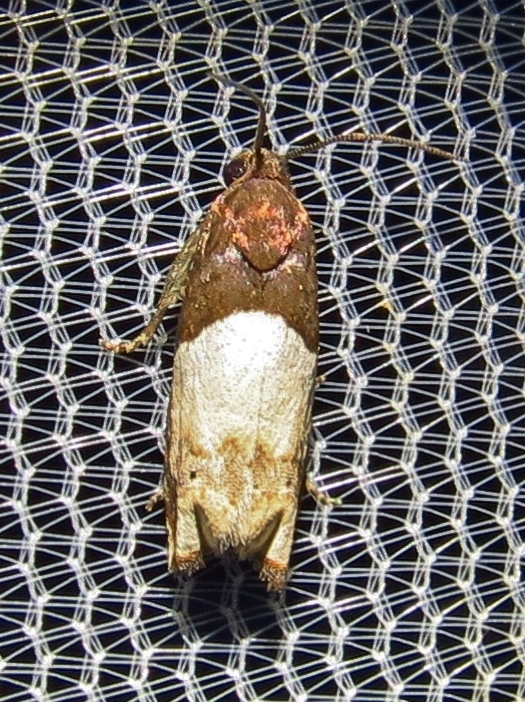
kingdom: Animalia
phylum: Arthropoda
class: Insecta
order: Lepidoptera
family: Tortricidae
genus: Epiblema
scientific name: Epiblema scudderiana
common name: Goldenrod gall moth
